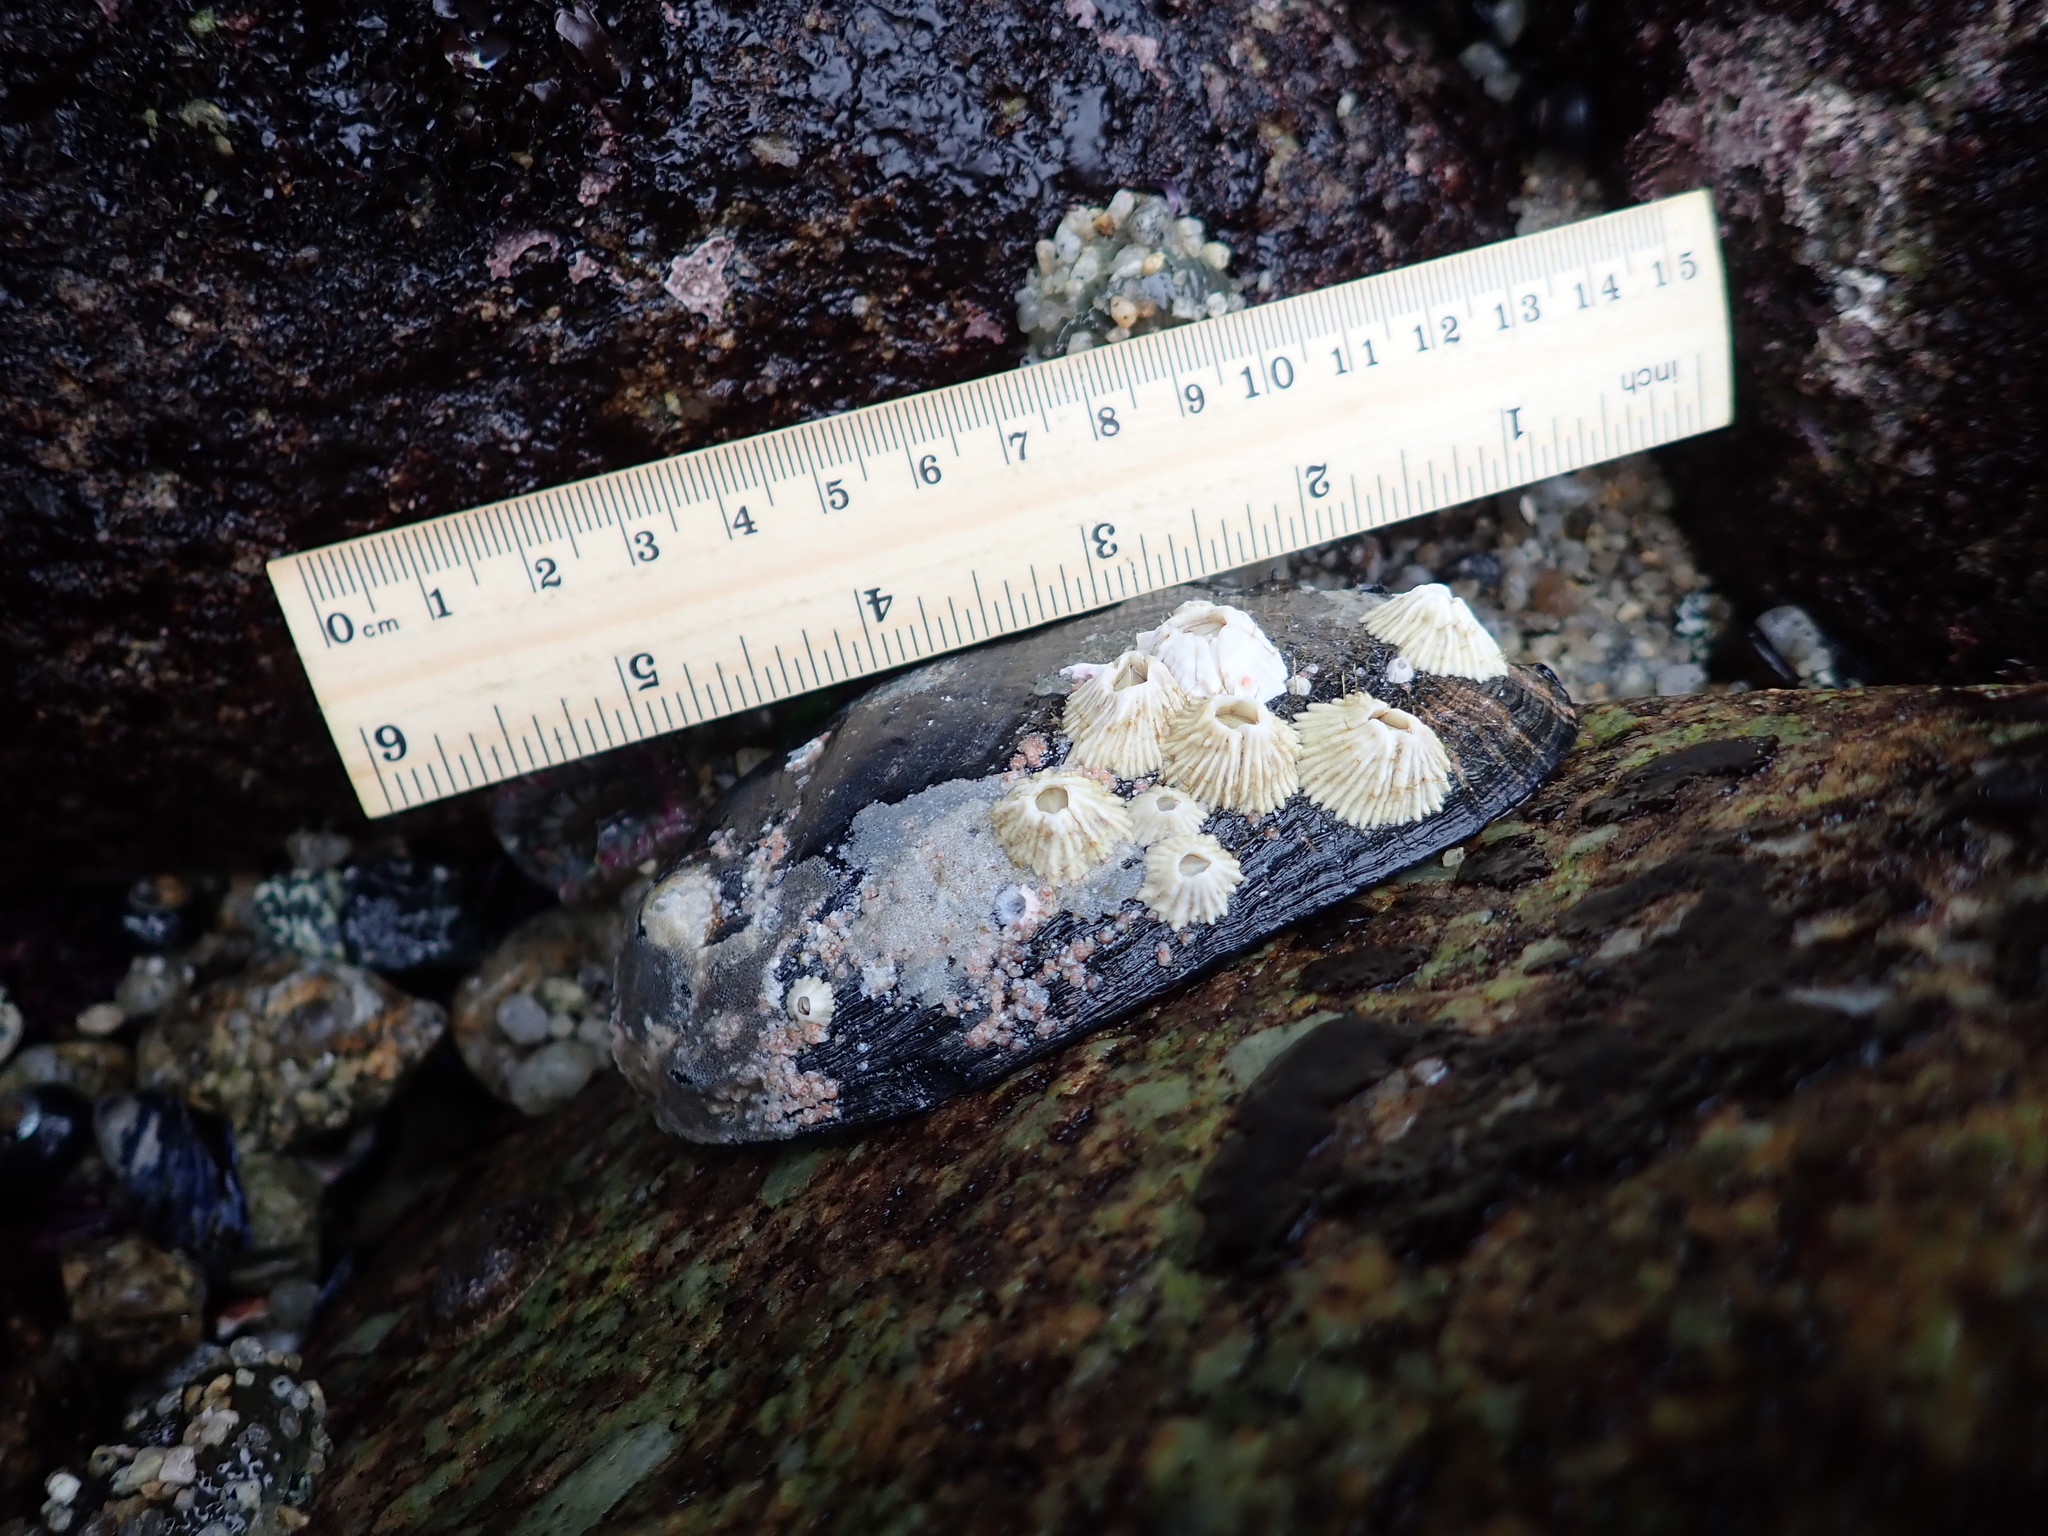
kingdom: Animalia
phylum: Mollusca
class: Gastropoda
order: Lepetellida
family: Haliotidae
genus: Haliotis
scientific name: Haliotis cracherodii
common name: Black abalone
